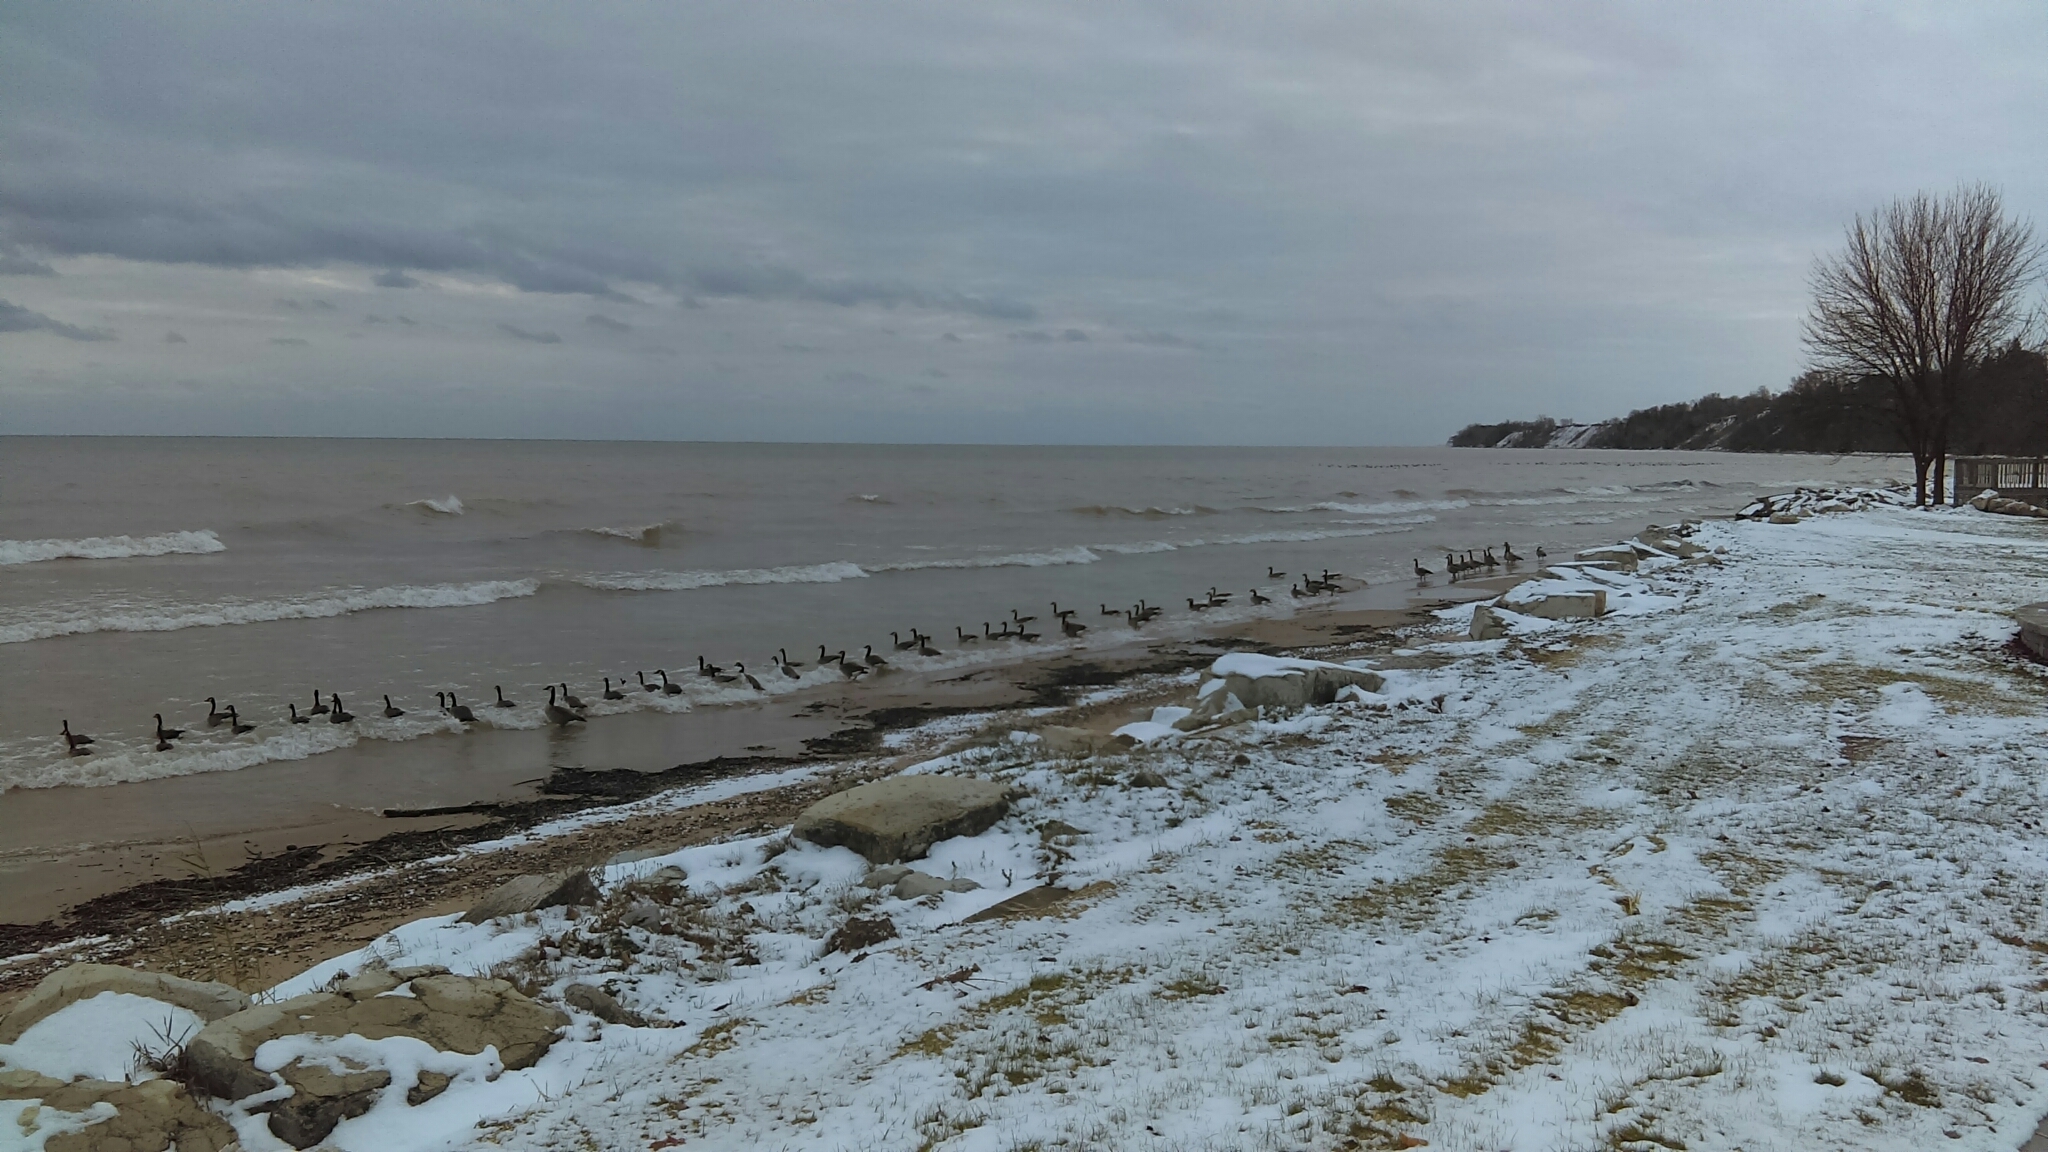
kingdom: Animalia
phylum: Chordata
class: Aves
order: Anseriformes
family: Anatidae
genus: Branta
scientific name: Branta canadensis
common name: Canada goose
